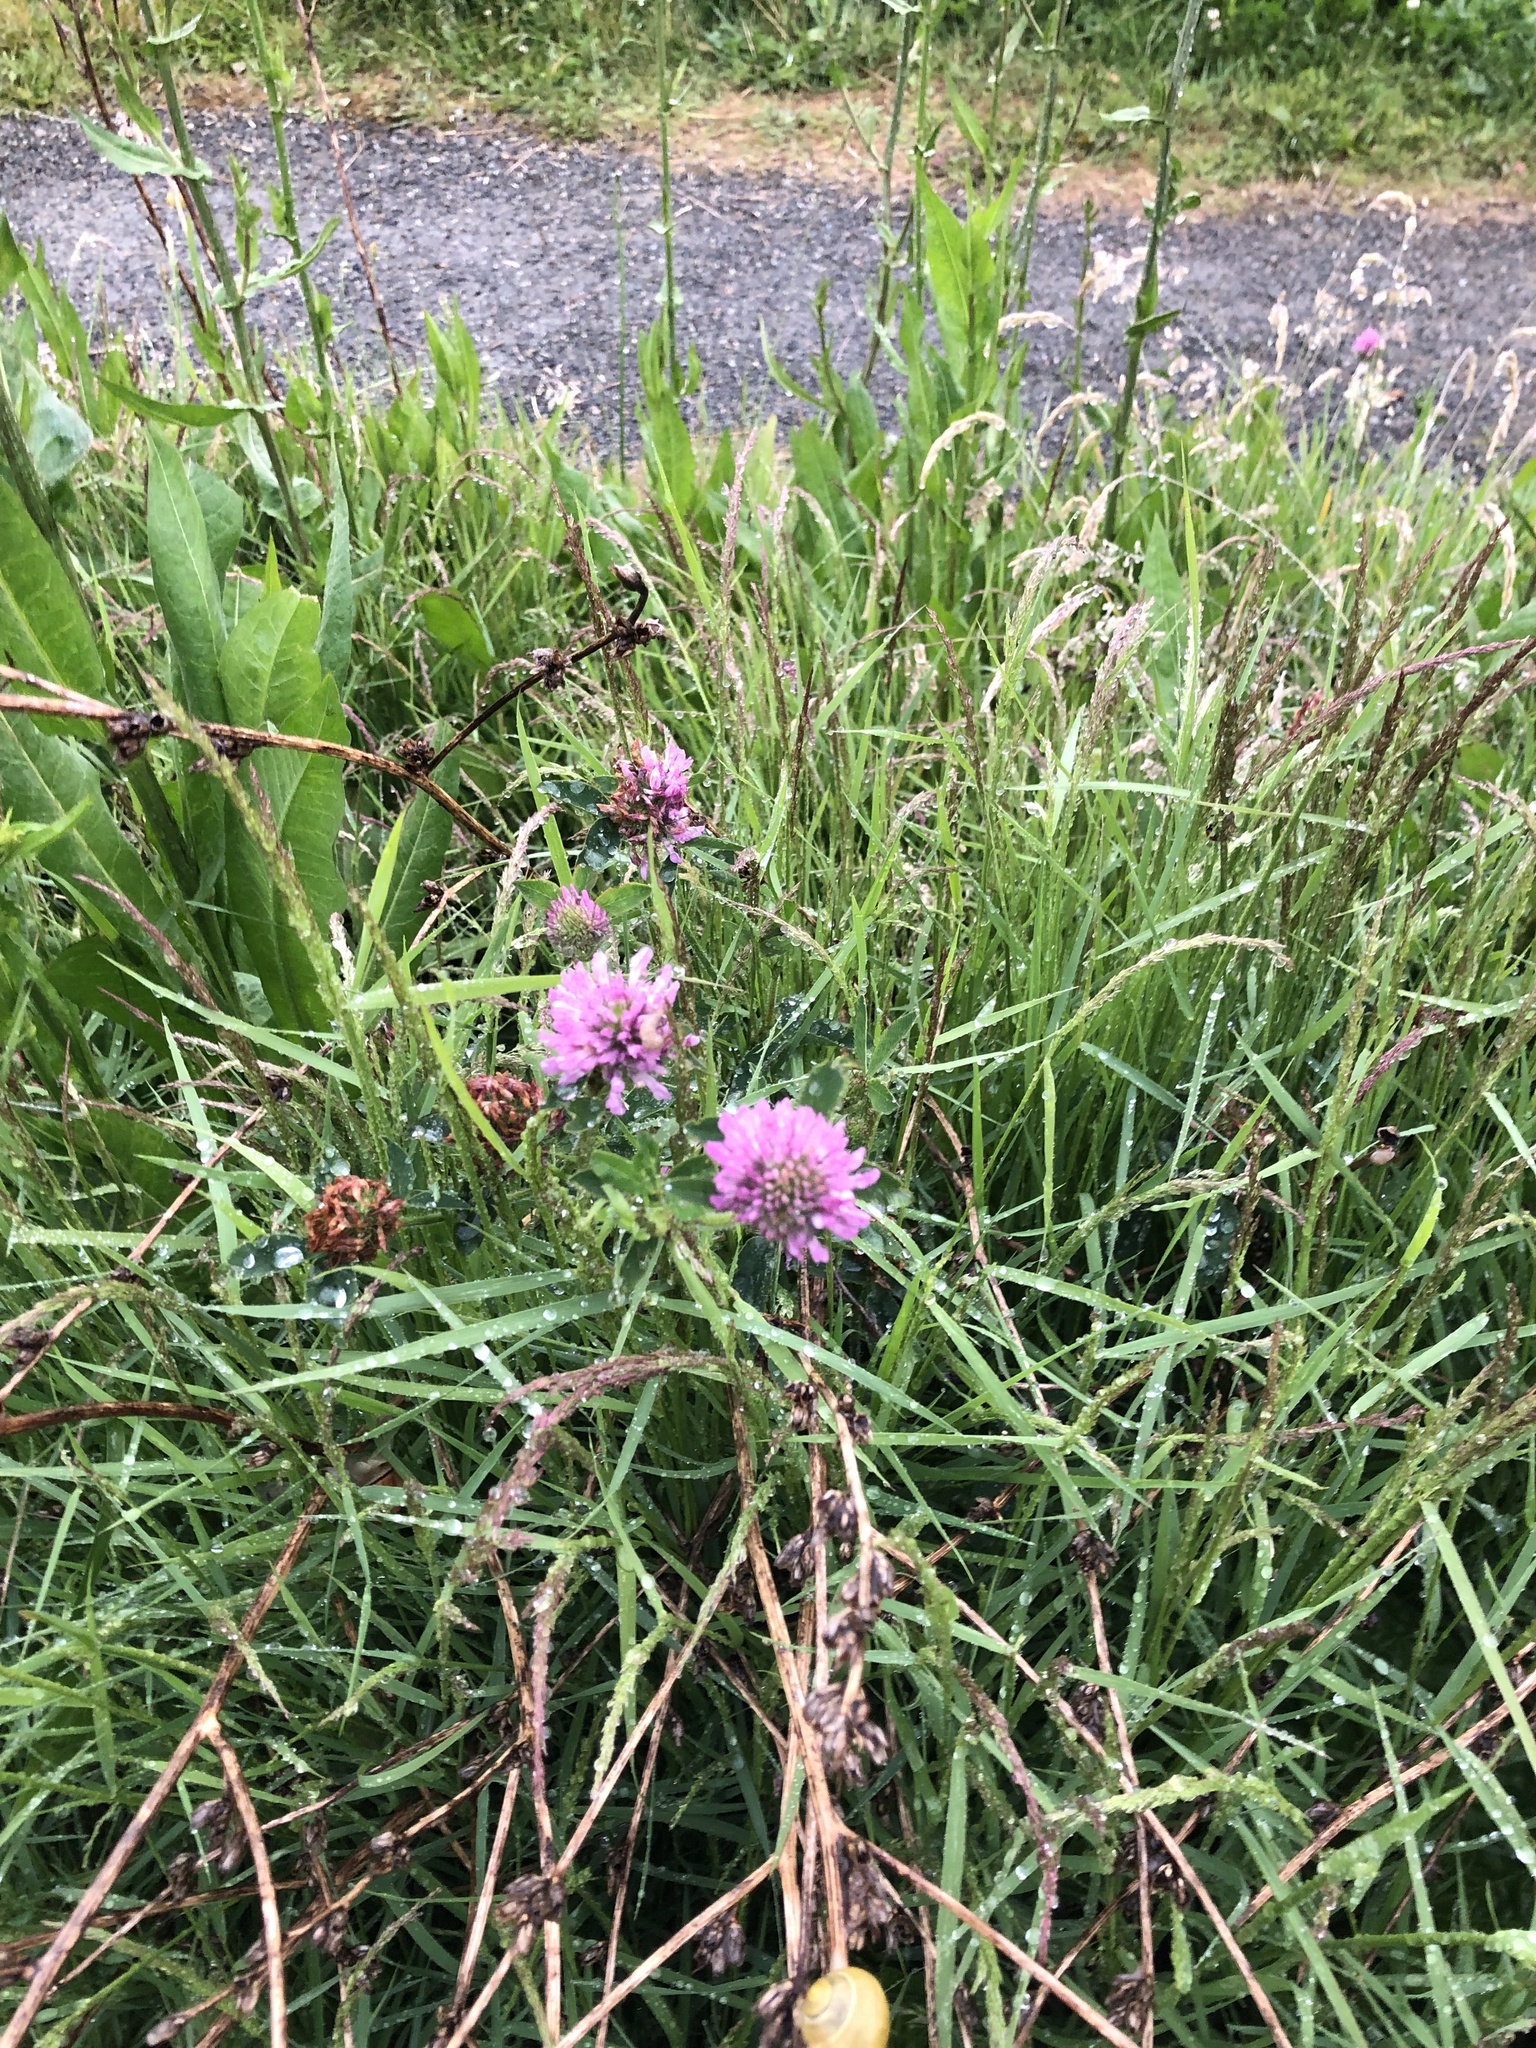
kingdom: Plantae
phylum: Tracheophyta
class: Magnoliopsida
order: Fabales
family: Fabaceae
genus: Trifolium
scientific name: Trifolium pratense
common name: Red clover
